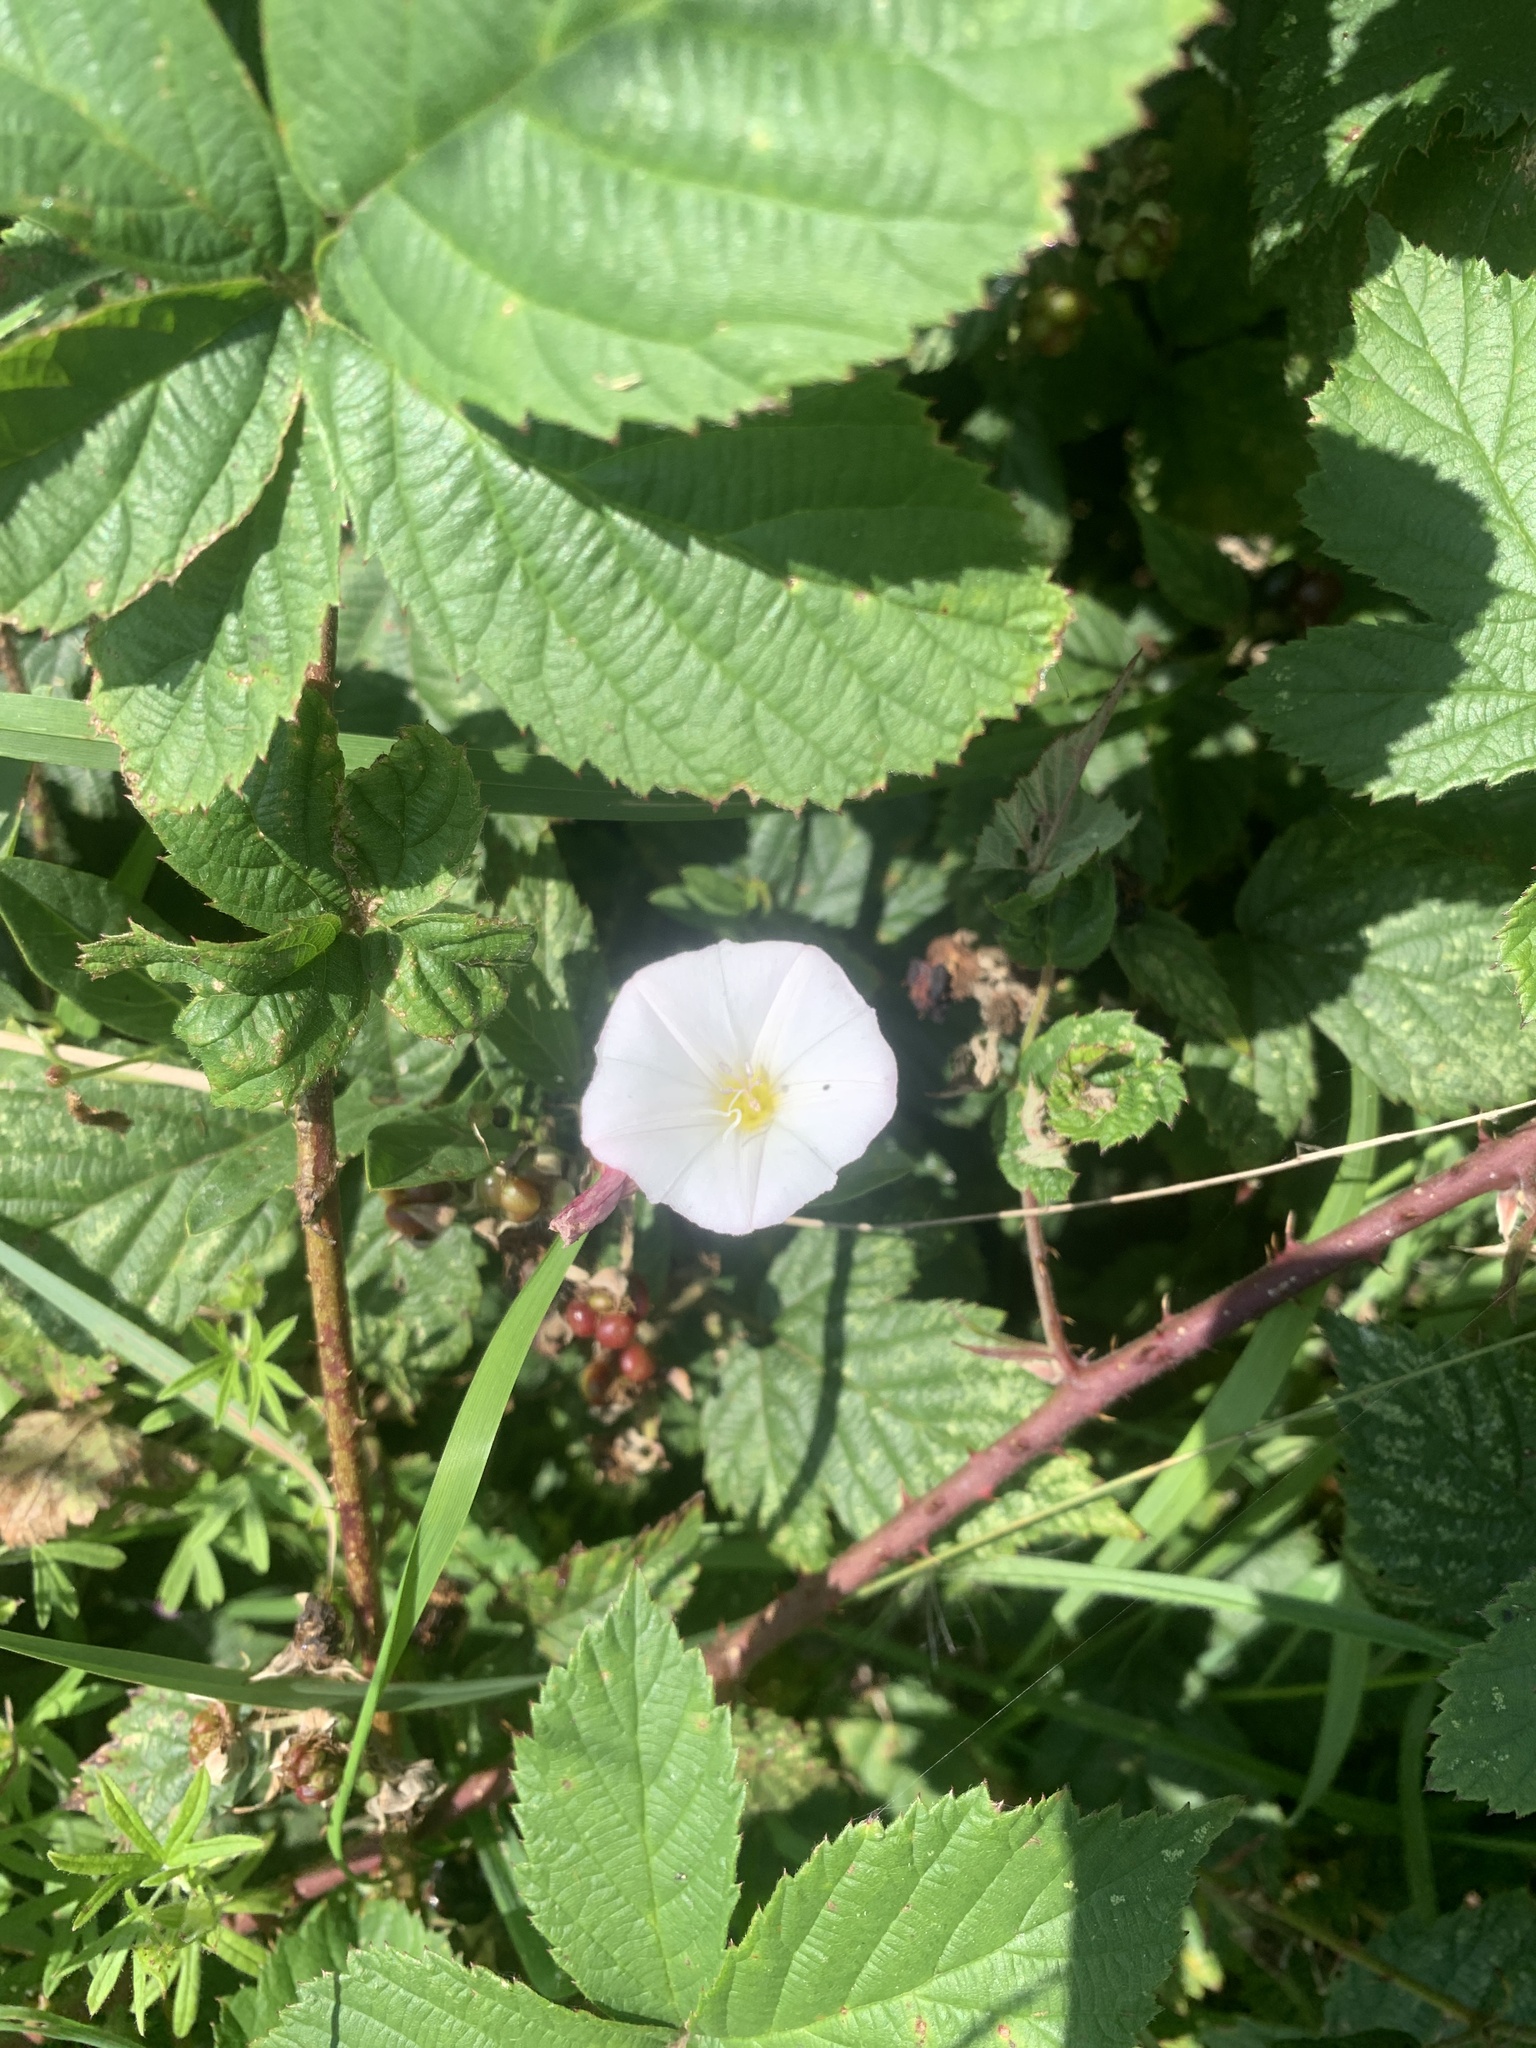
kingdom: Plantae
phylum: Tracheophyta
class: Magnoliopsida
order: Solanales
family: Convolvulaceae
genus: Convolvulus
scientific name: Convolvulus arvensis
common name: Field bindweed
